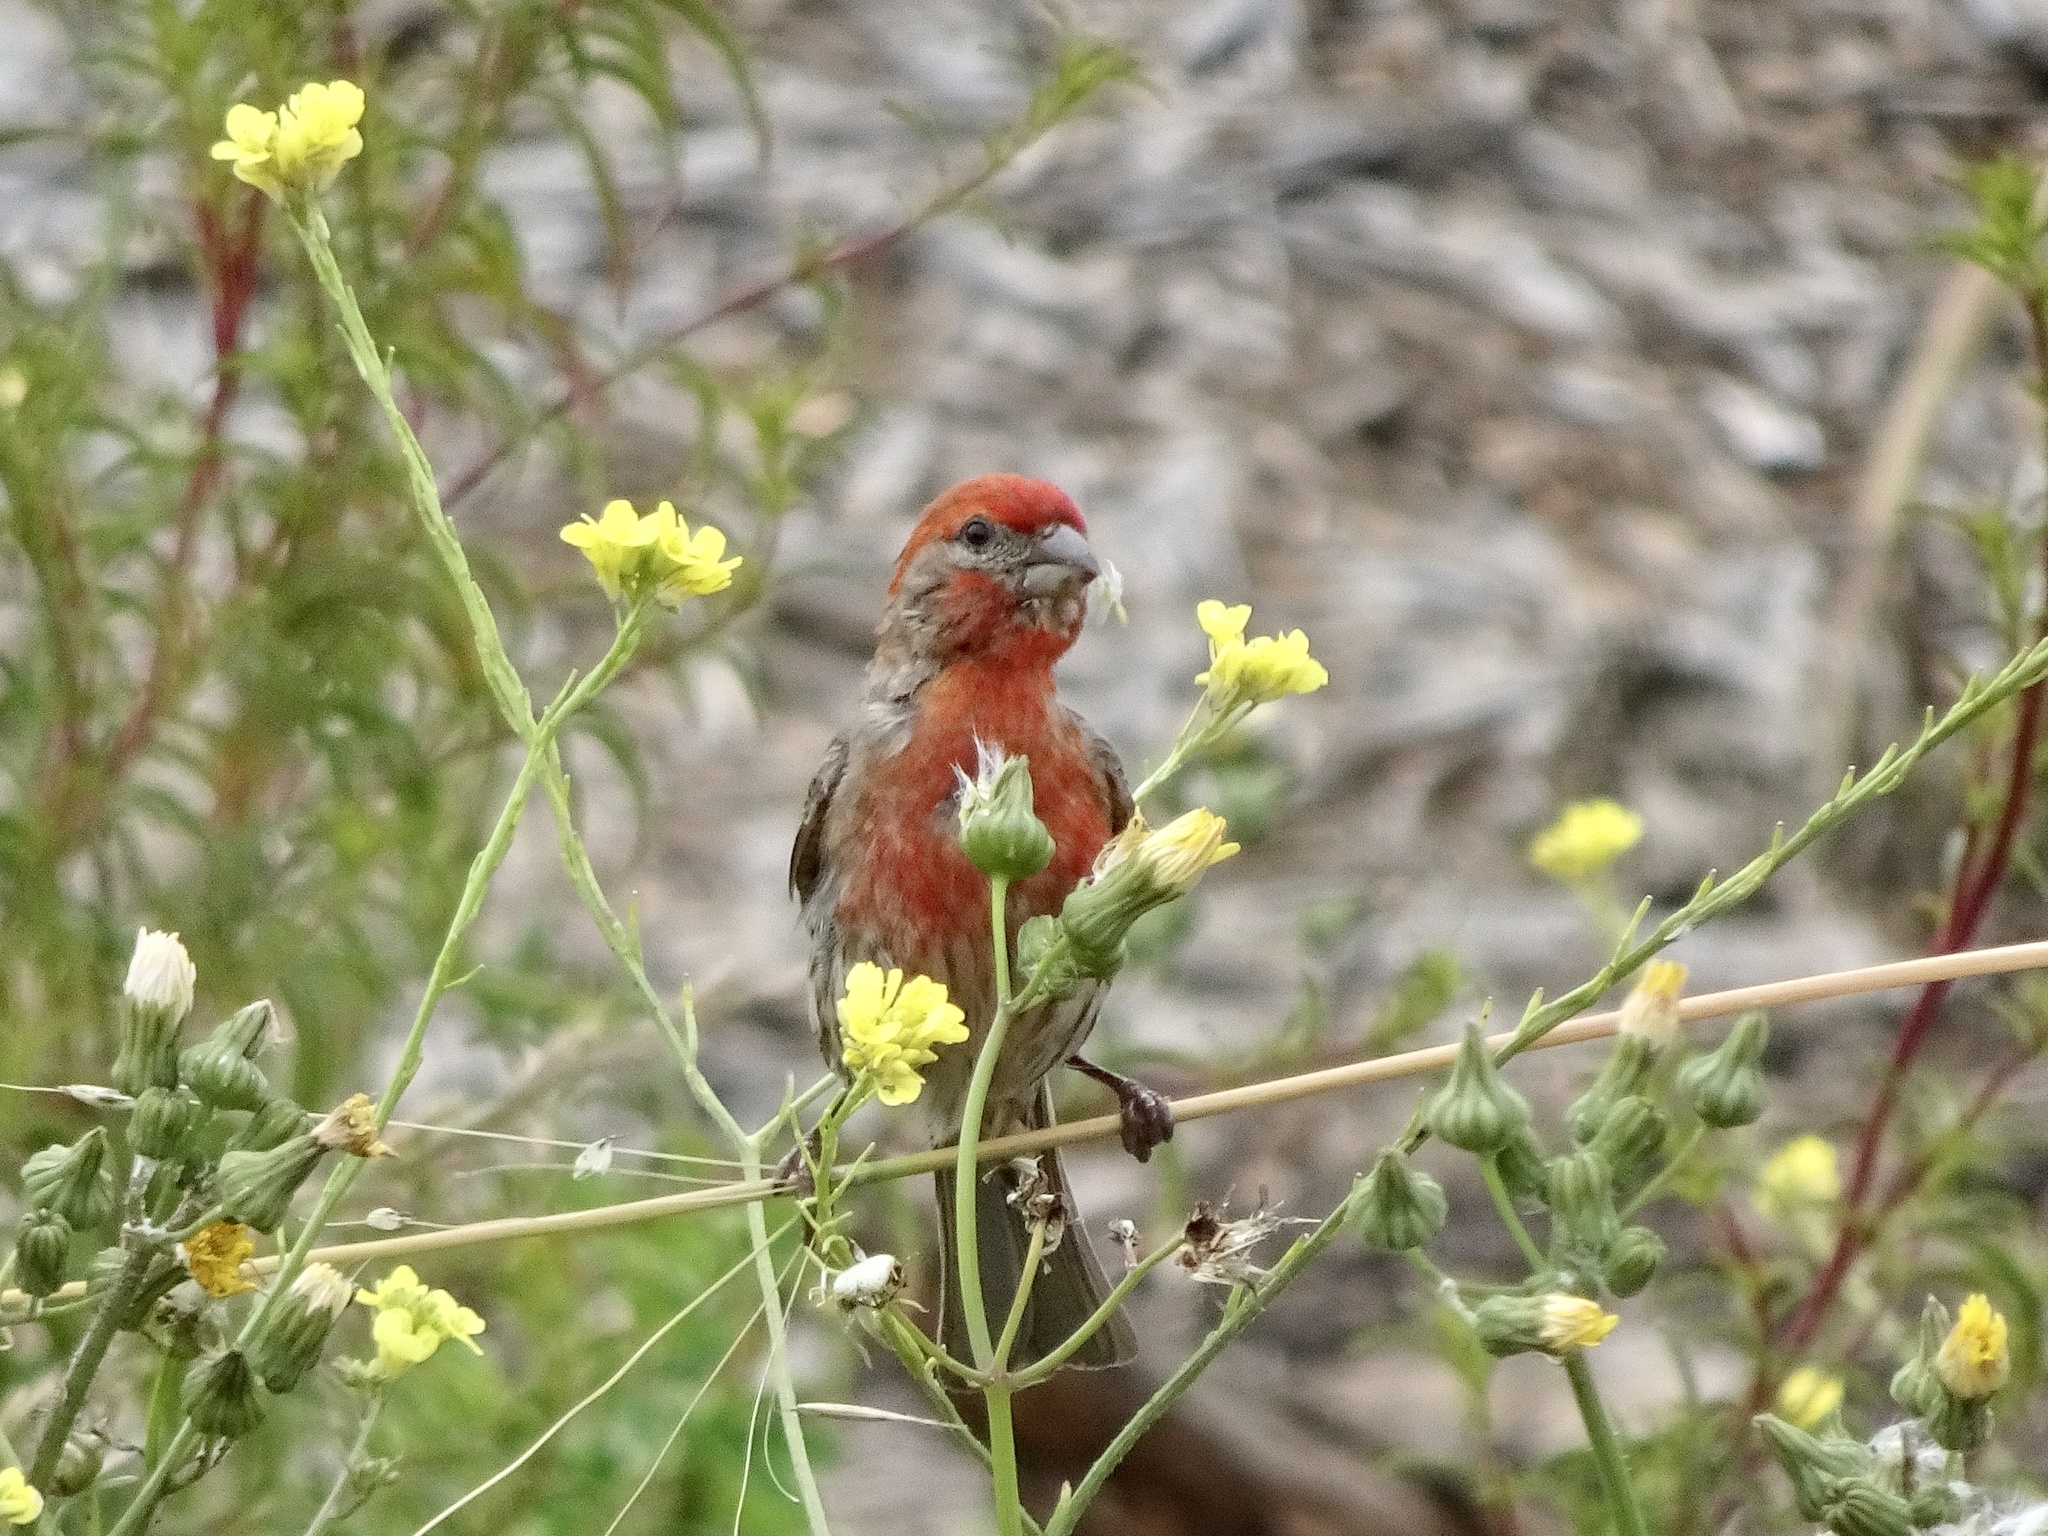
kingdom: Animalia
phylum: Chordata
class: Aves
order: Passeriformes
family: Fringillidae
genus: Haemorhous
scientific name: Haemorhous mexicanus
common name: House finch
